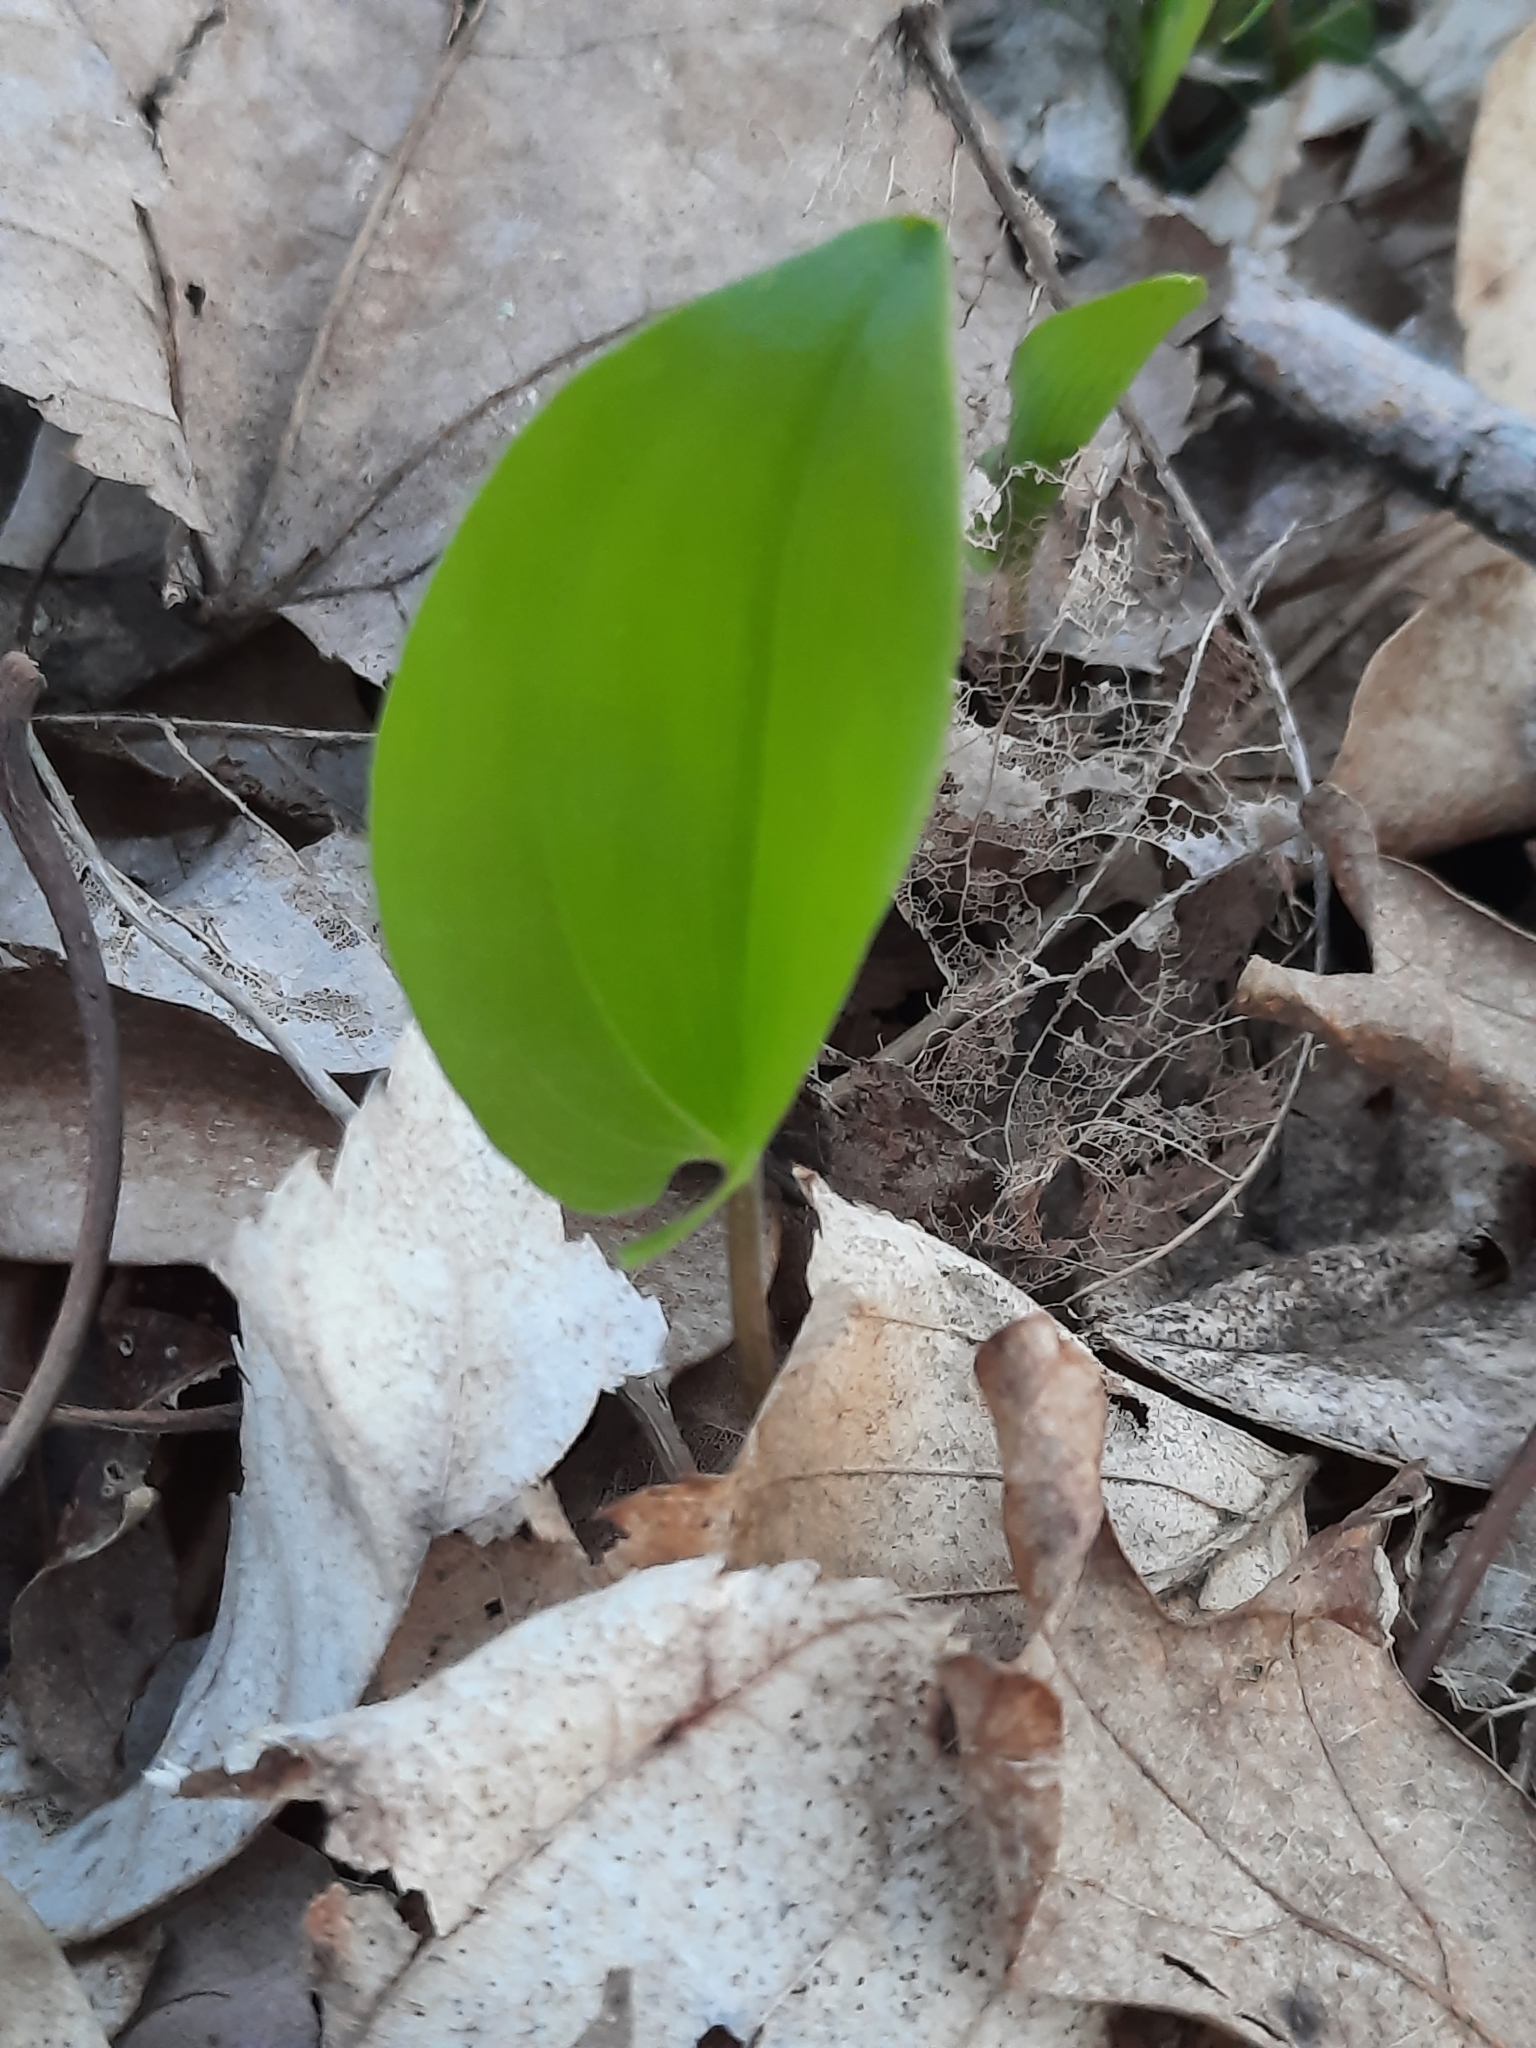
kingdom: Plantae
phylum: Tracheophyta
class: Liliopsida
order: Asparagales
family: Asparagaceae
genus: Maianthemum
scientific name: Maianthemum canadense
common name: False lily-of-the-valley
